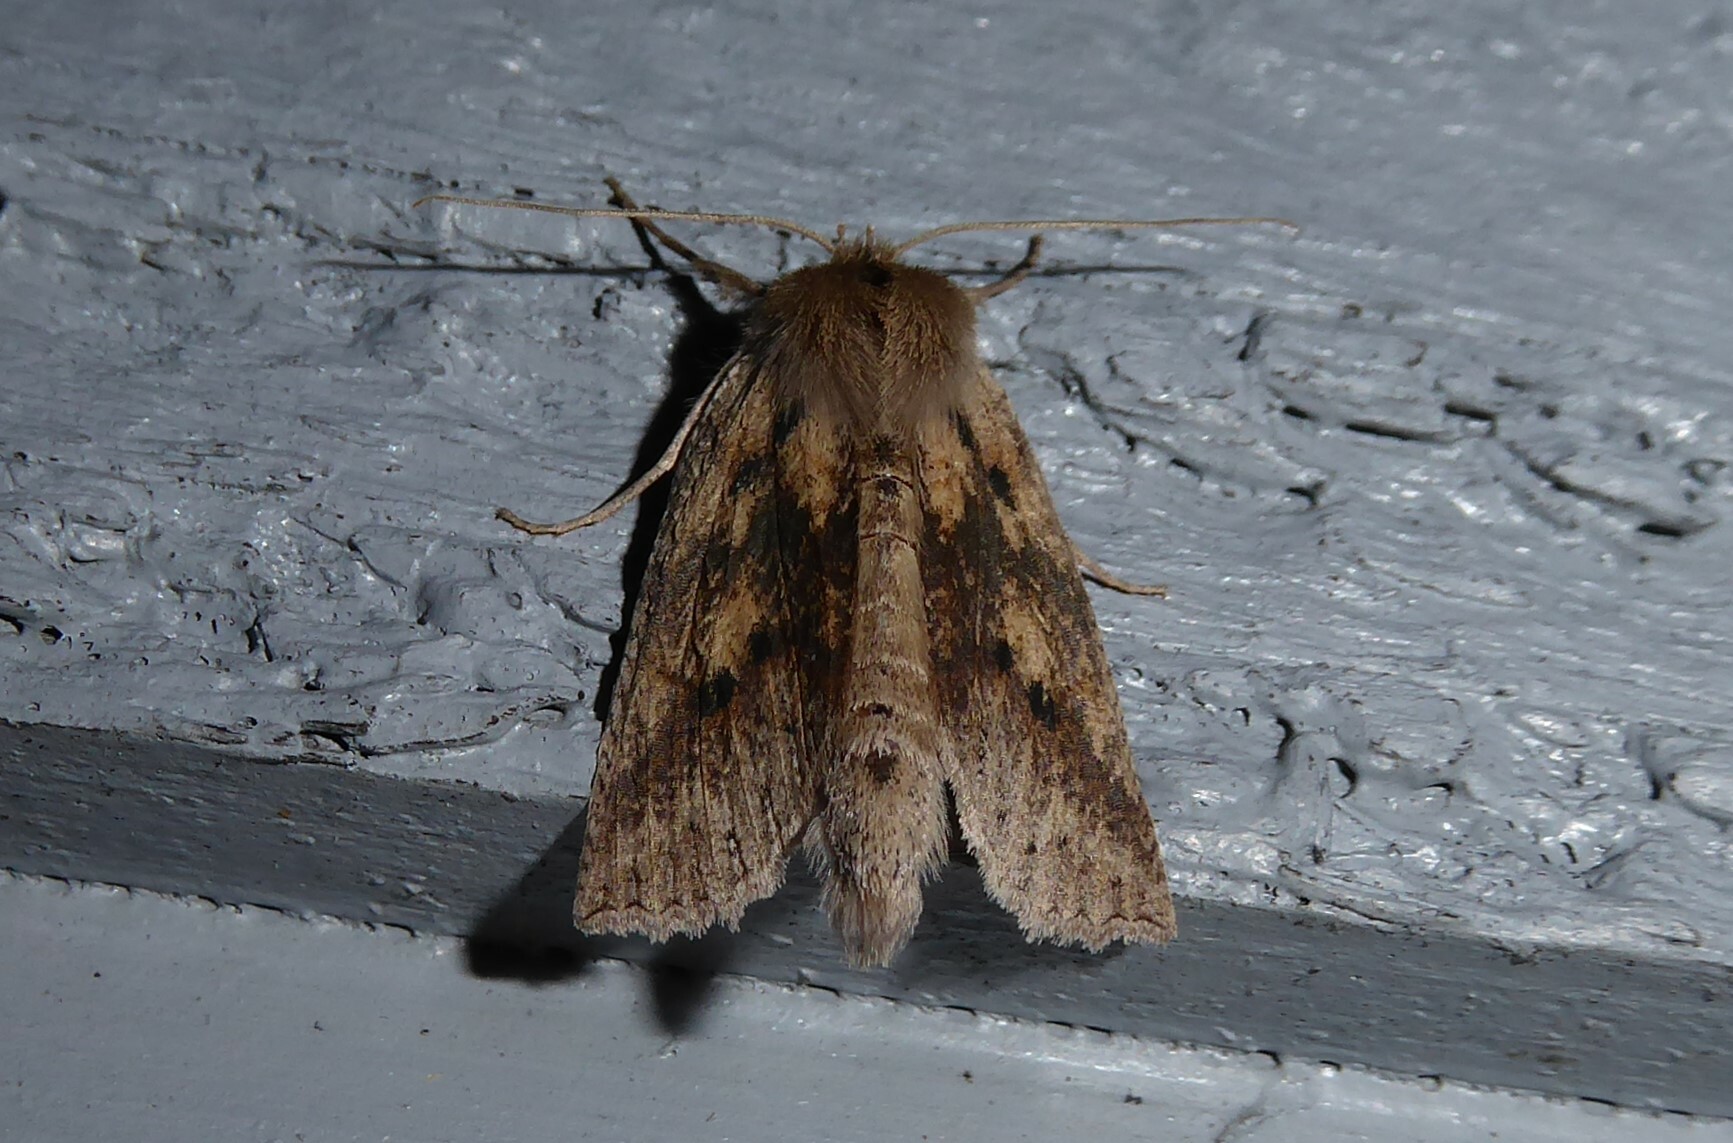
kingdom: Animalia
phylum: Arthropoda
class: Insecta
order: Lepidoptera
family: Geometridae
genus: Declana
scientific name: Declana leptomera
